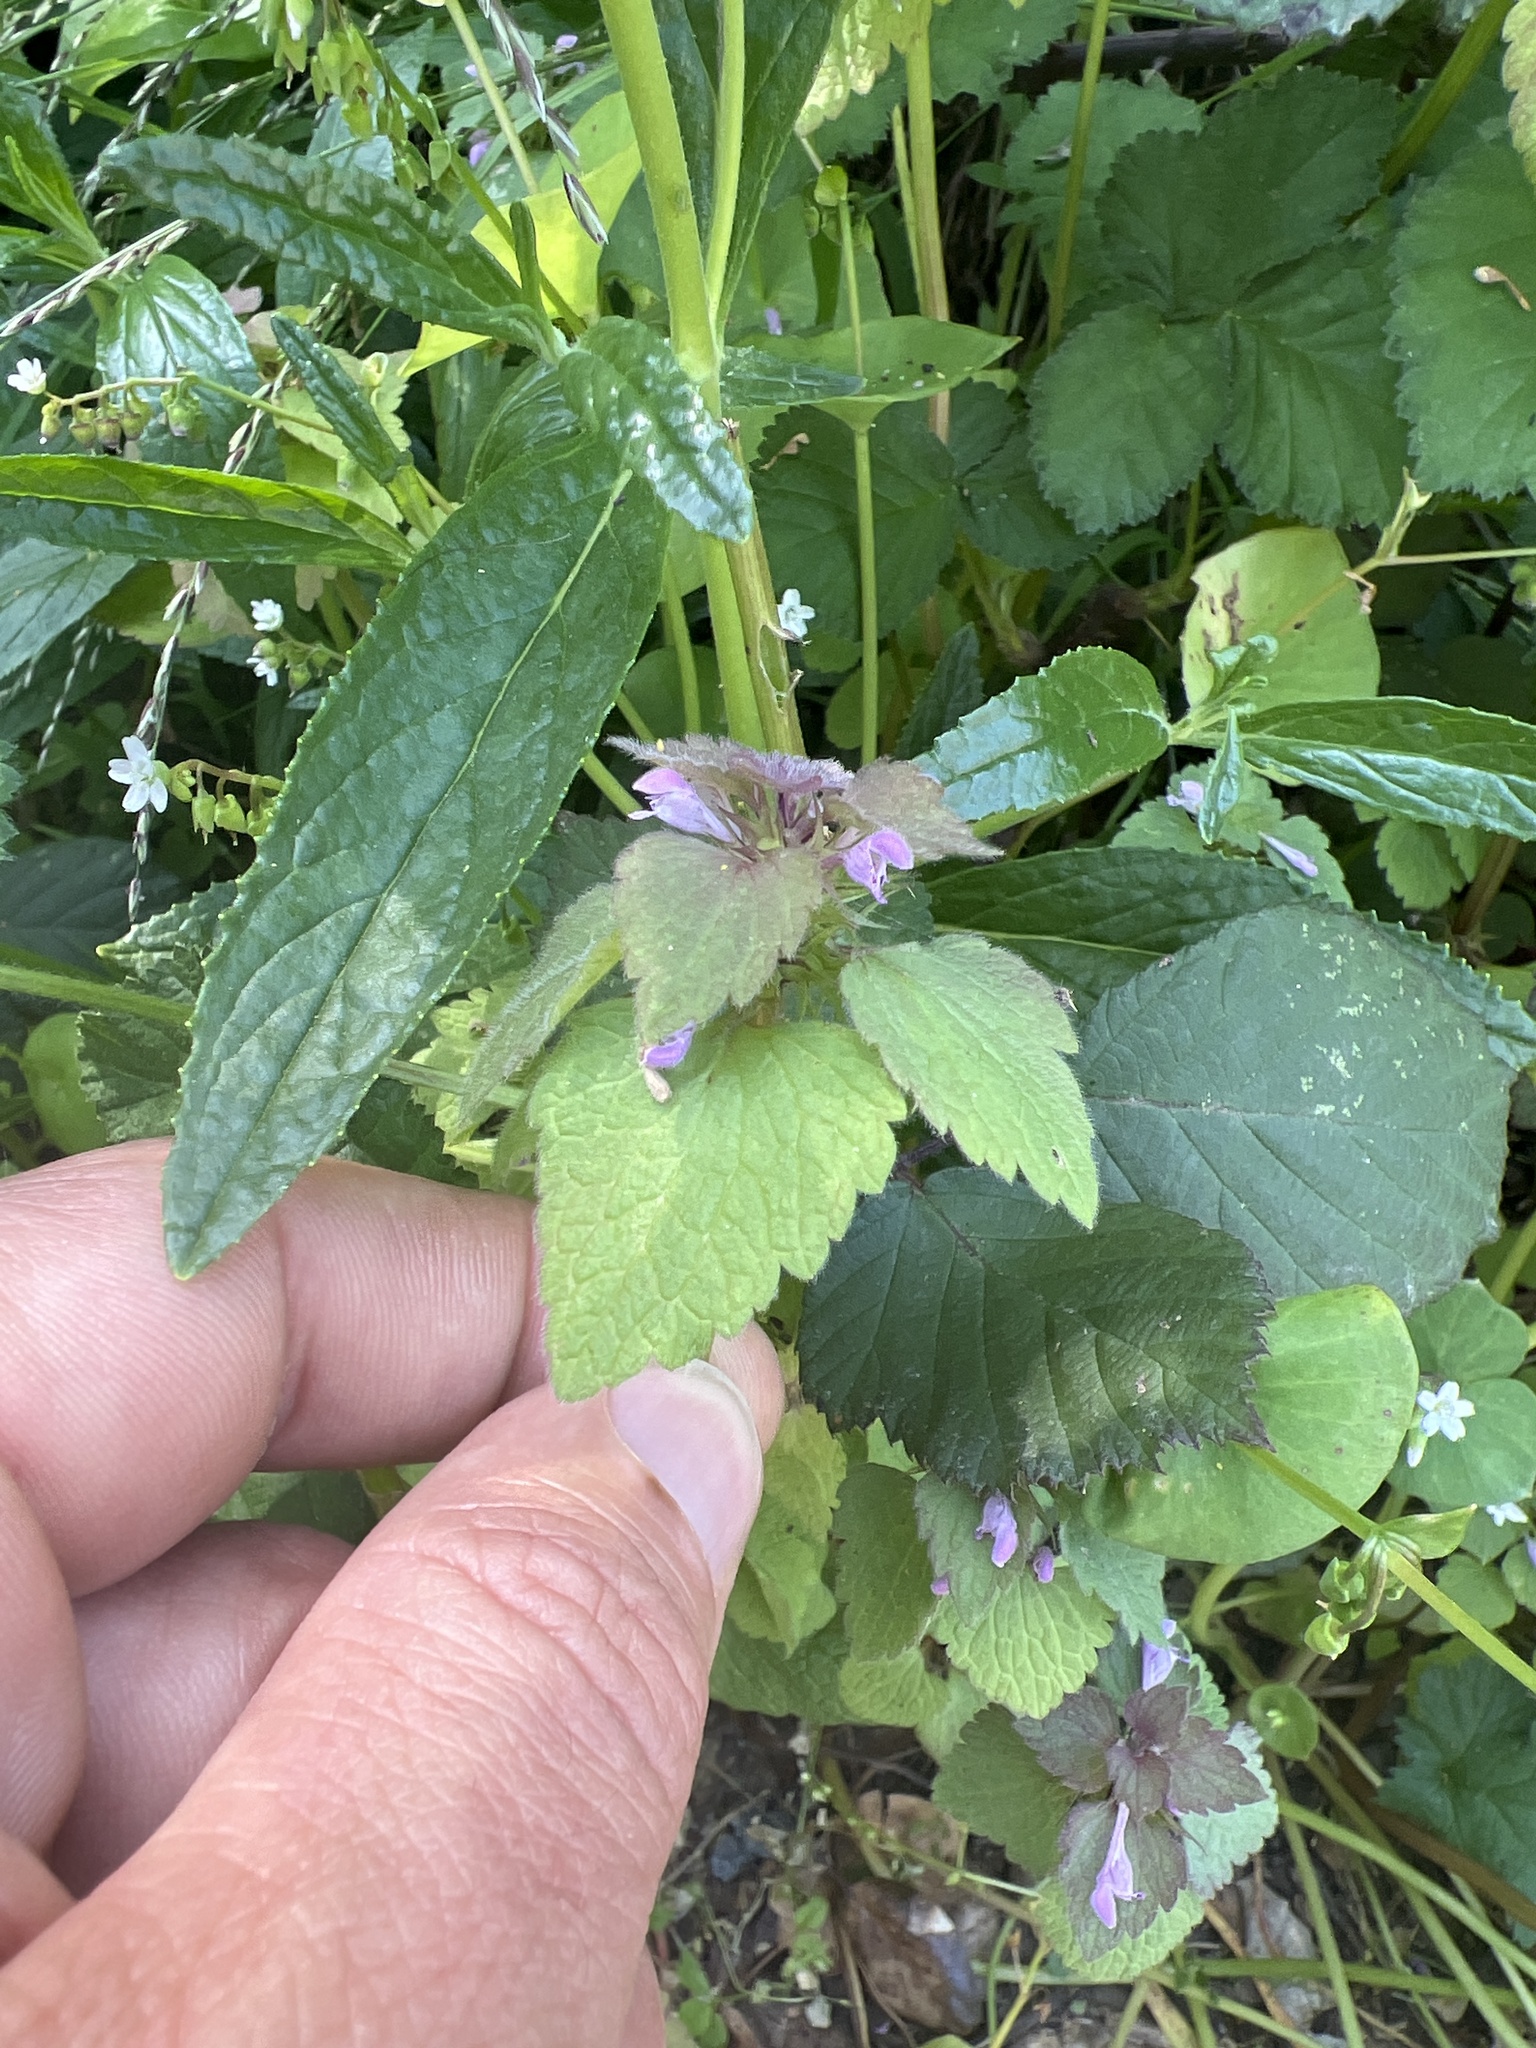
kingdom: Plantae
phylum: Tracheophyta
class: Magnoliopsida
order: Lamiales
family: Lamiaceae
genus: Lamium
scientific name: Lamium purpureum
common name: Red dead-nettle
